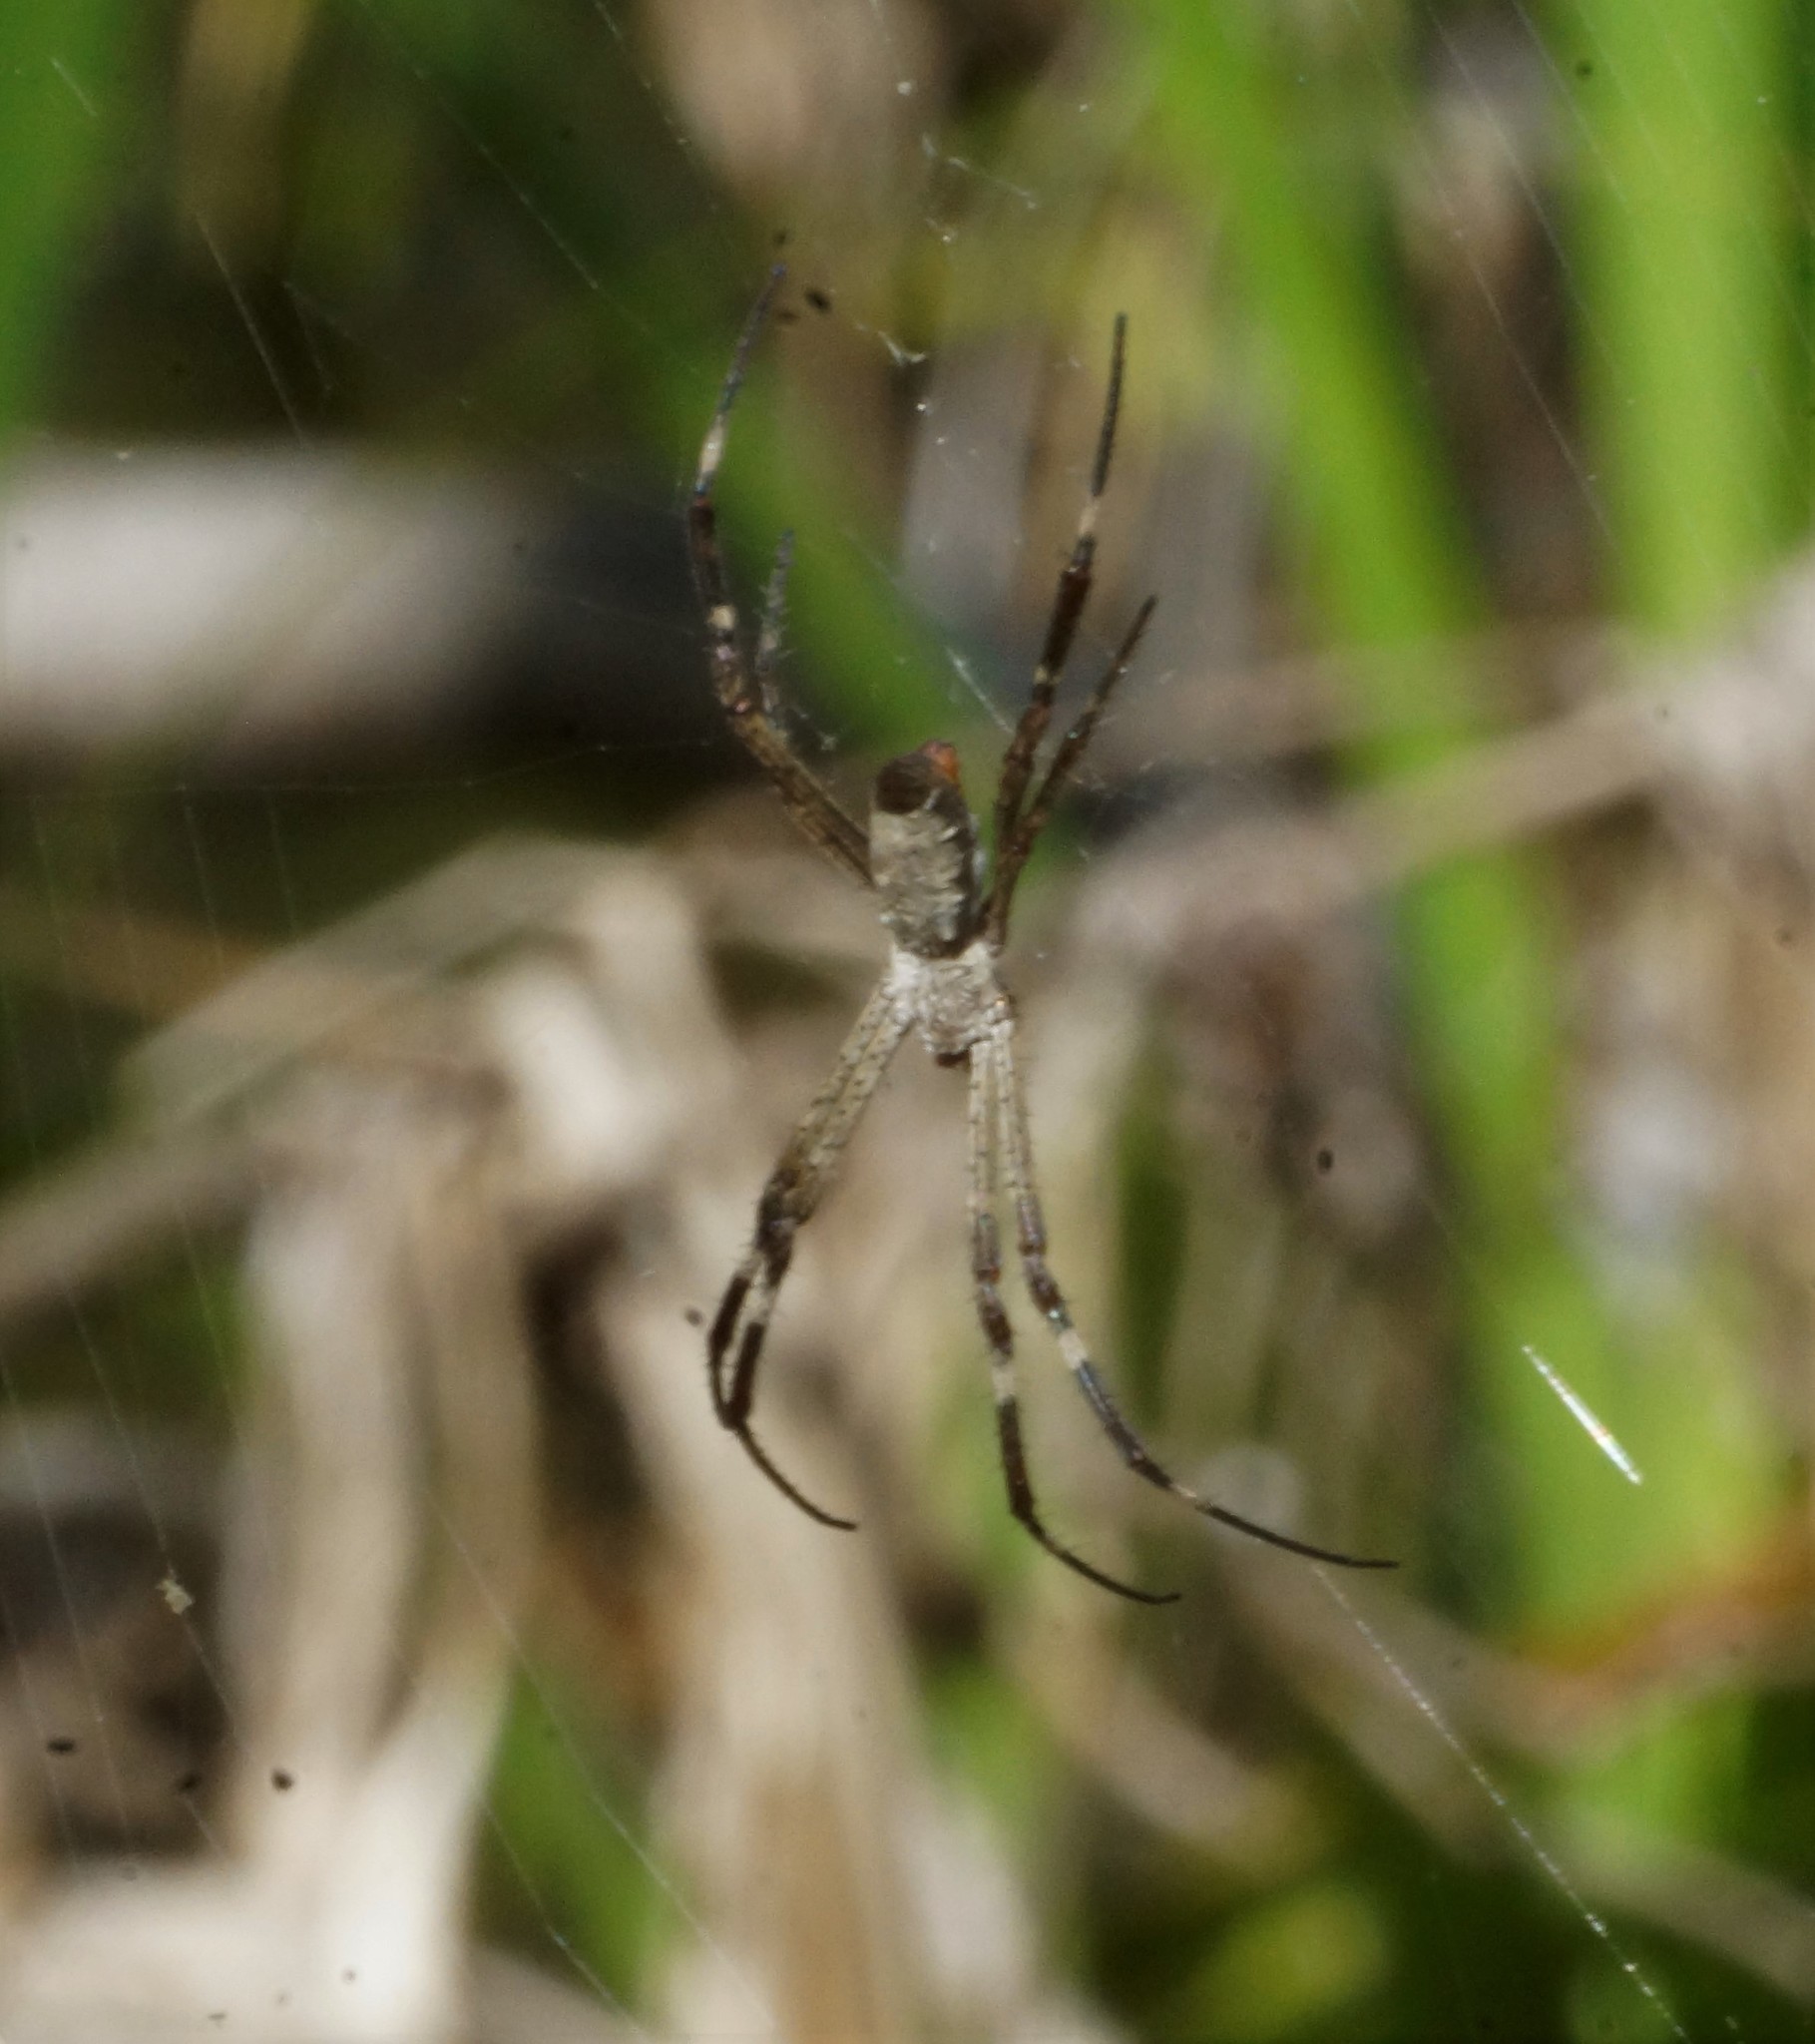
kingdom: Animalia
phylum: Arthropoda
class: Arachnida
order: Araneae
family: Araneidae
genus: Argiope
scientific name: Argiope radon
